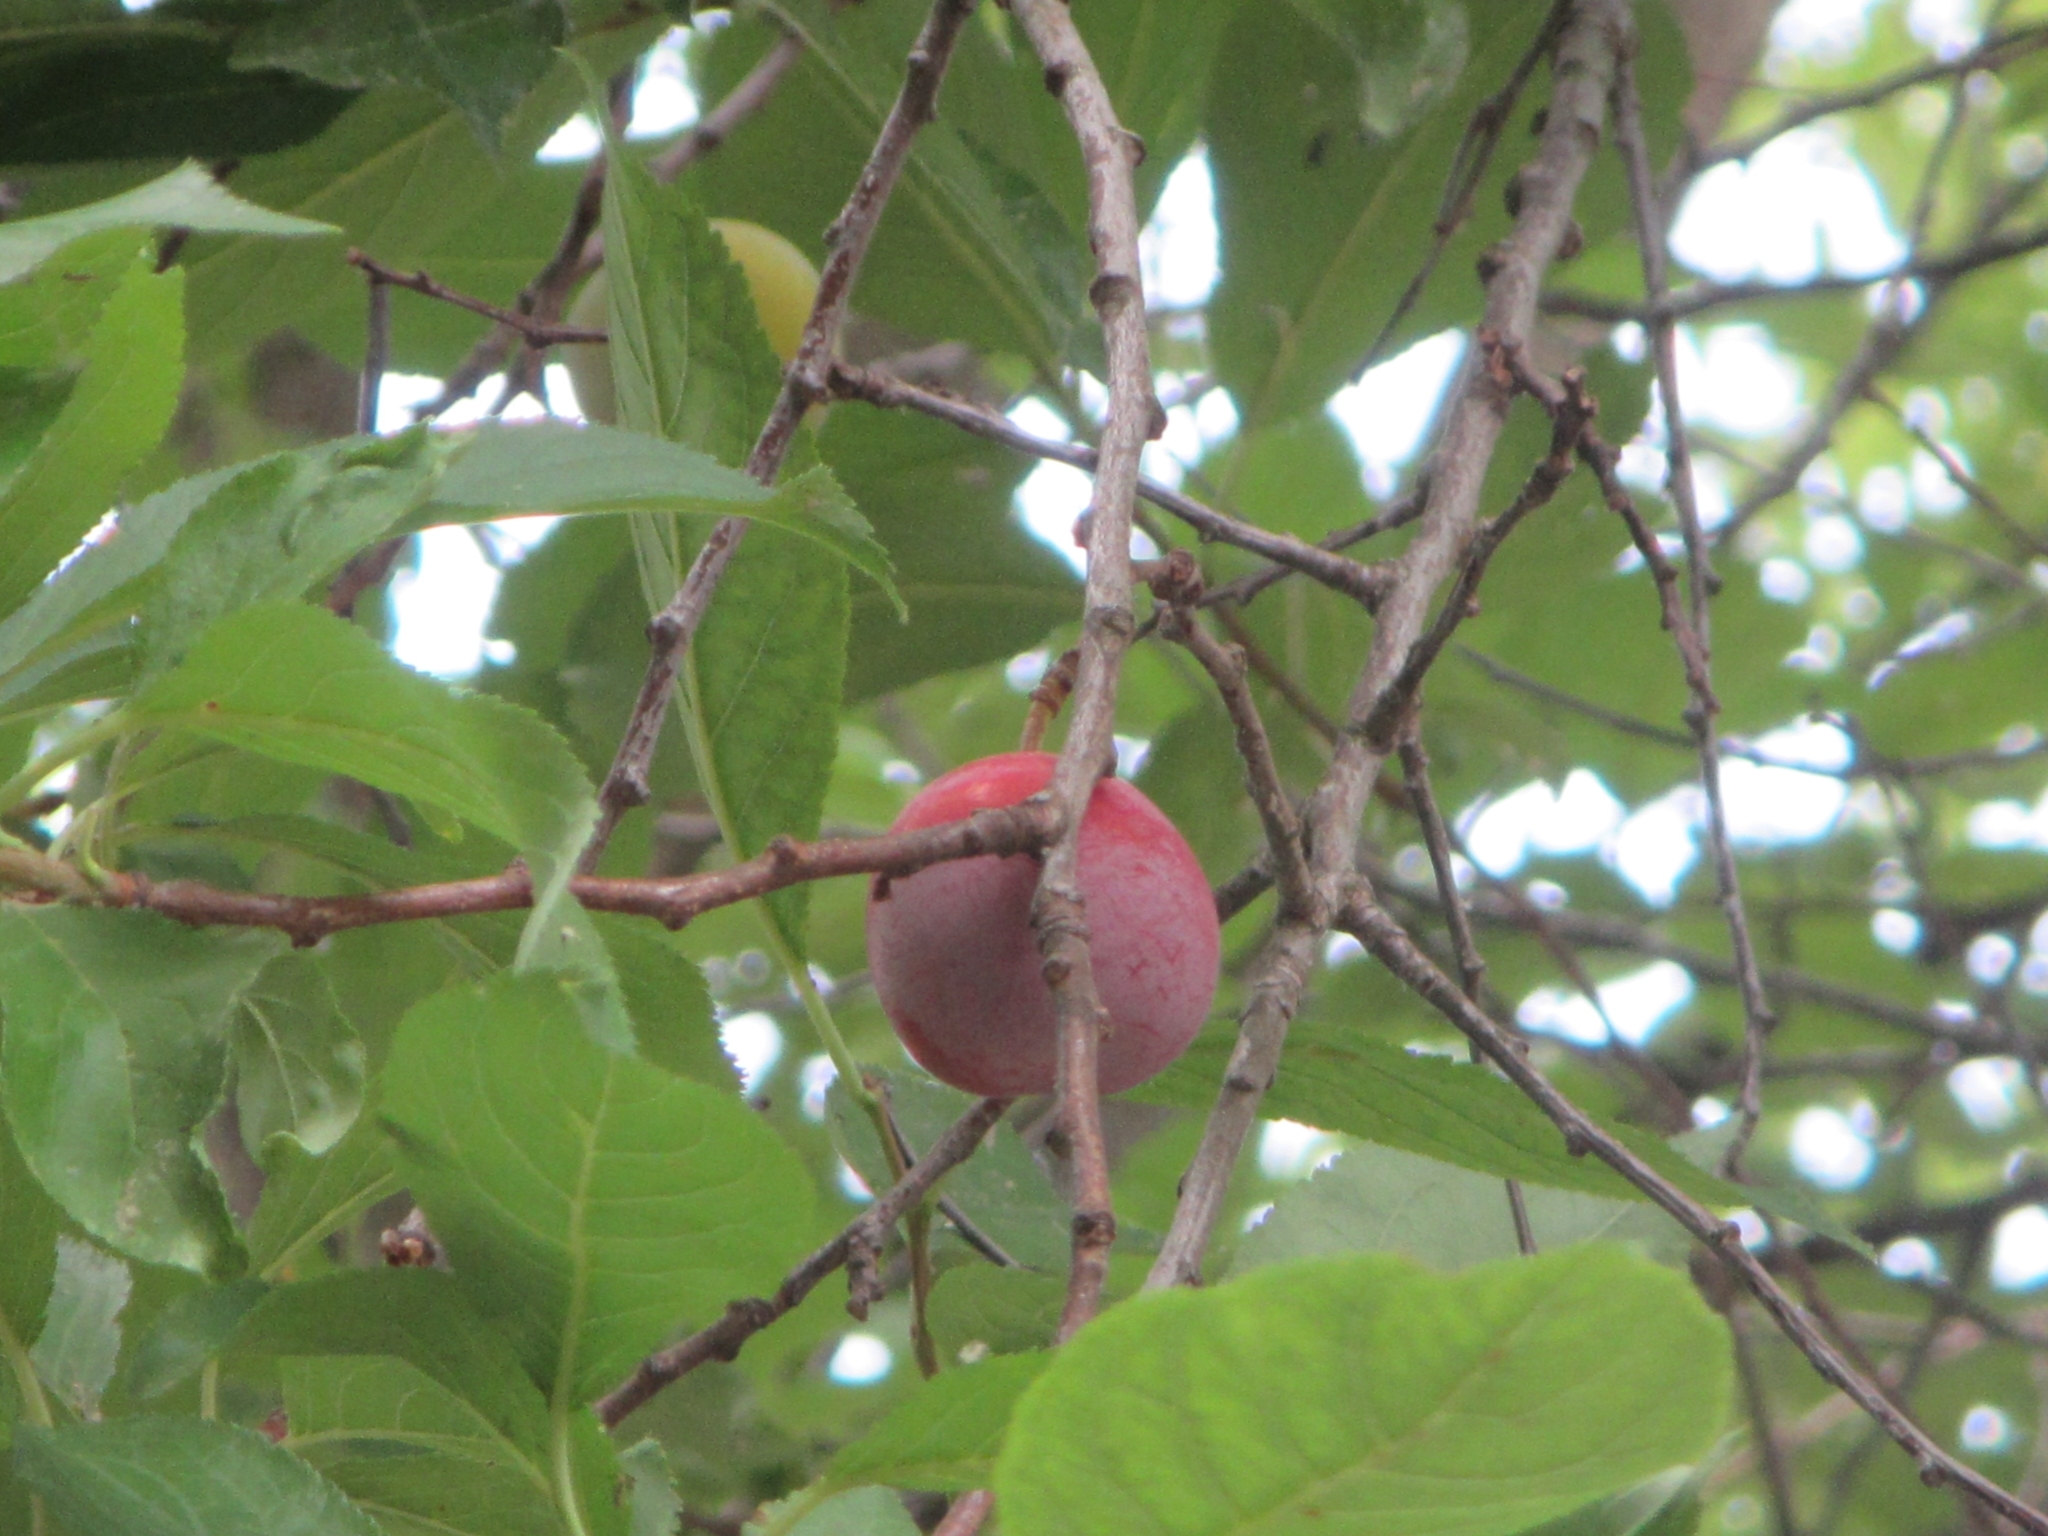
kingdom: Plantae
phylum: Tracheophyta
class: Magnoliopsida
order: Rosales
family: Rosaceae
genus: Prunus
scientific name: Prunus americana
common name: American plum
